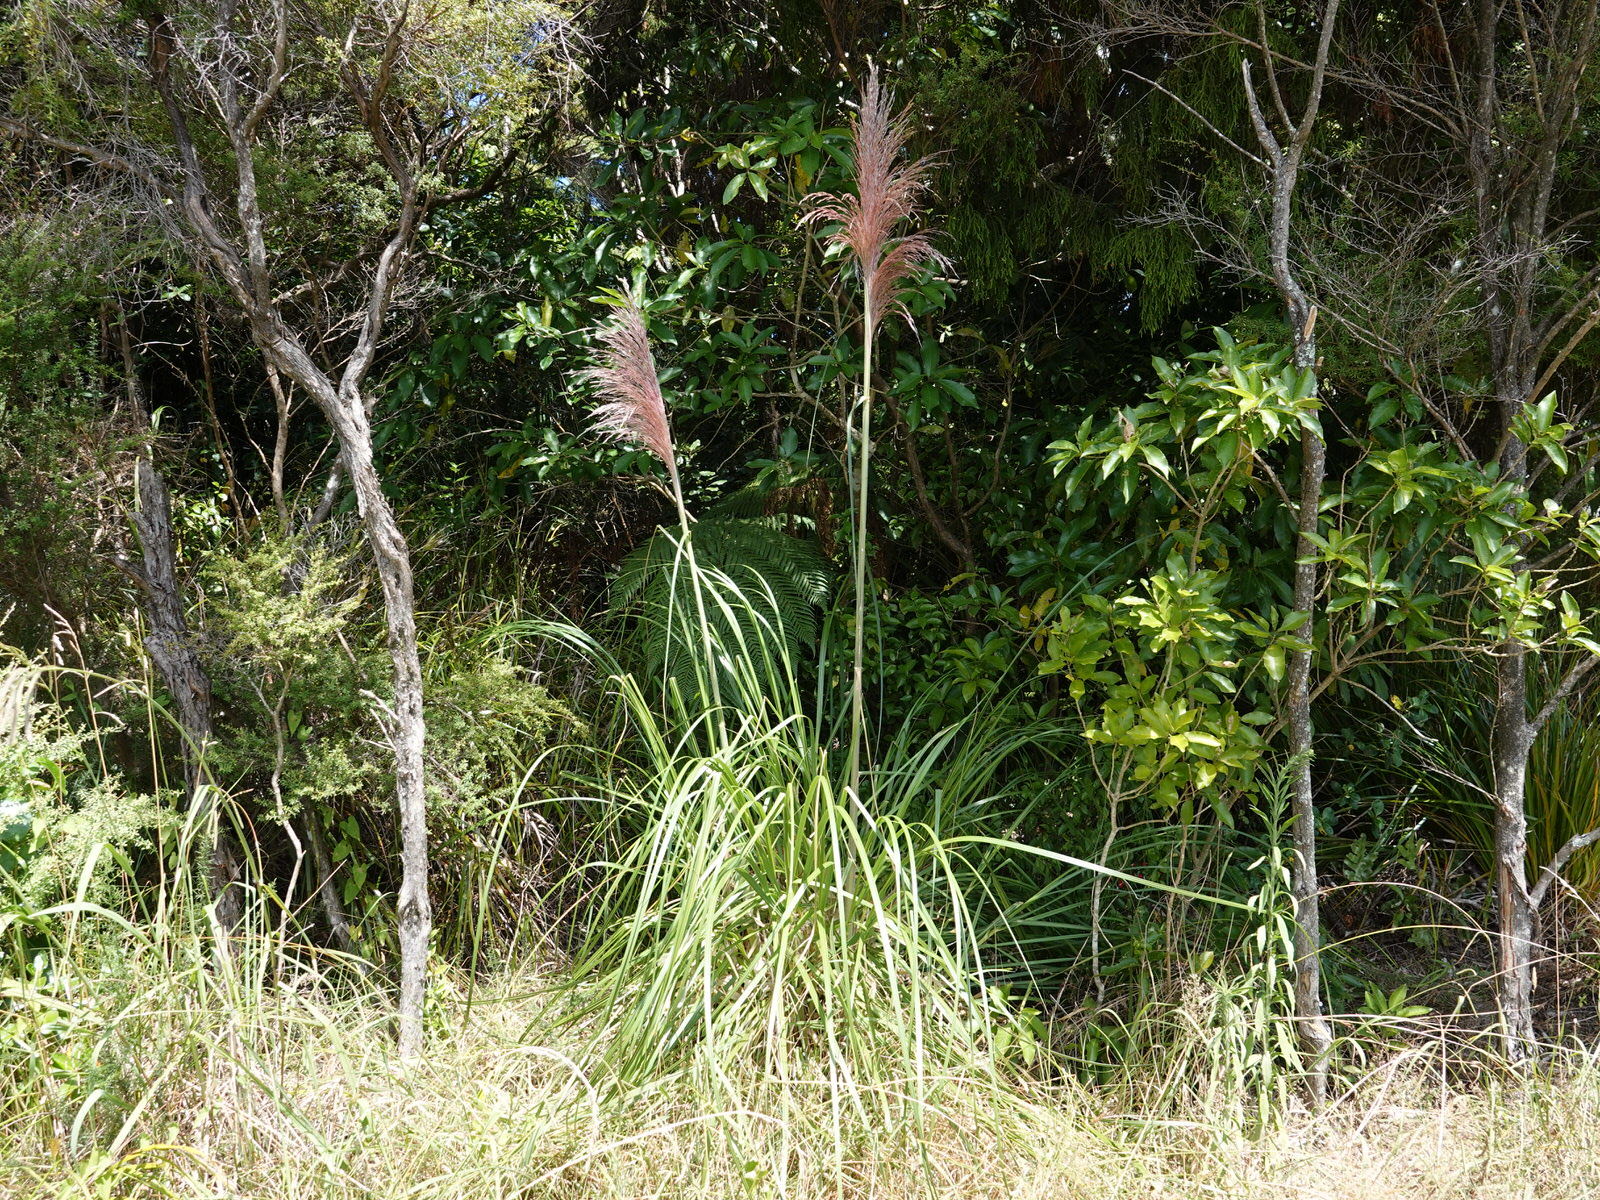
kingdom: Plantae
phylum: Tracheophyta
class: Liliopsida
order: Poales
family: Poaceae
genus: Cortaderia
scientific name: Cortaderia jubata
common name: Purple pampas grass
